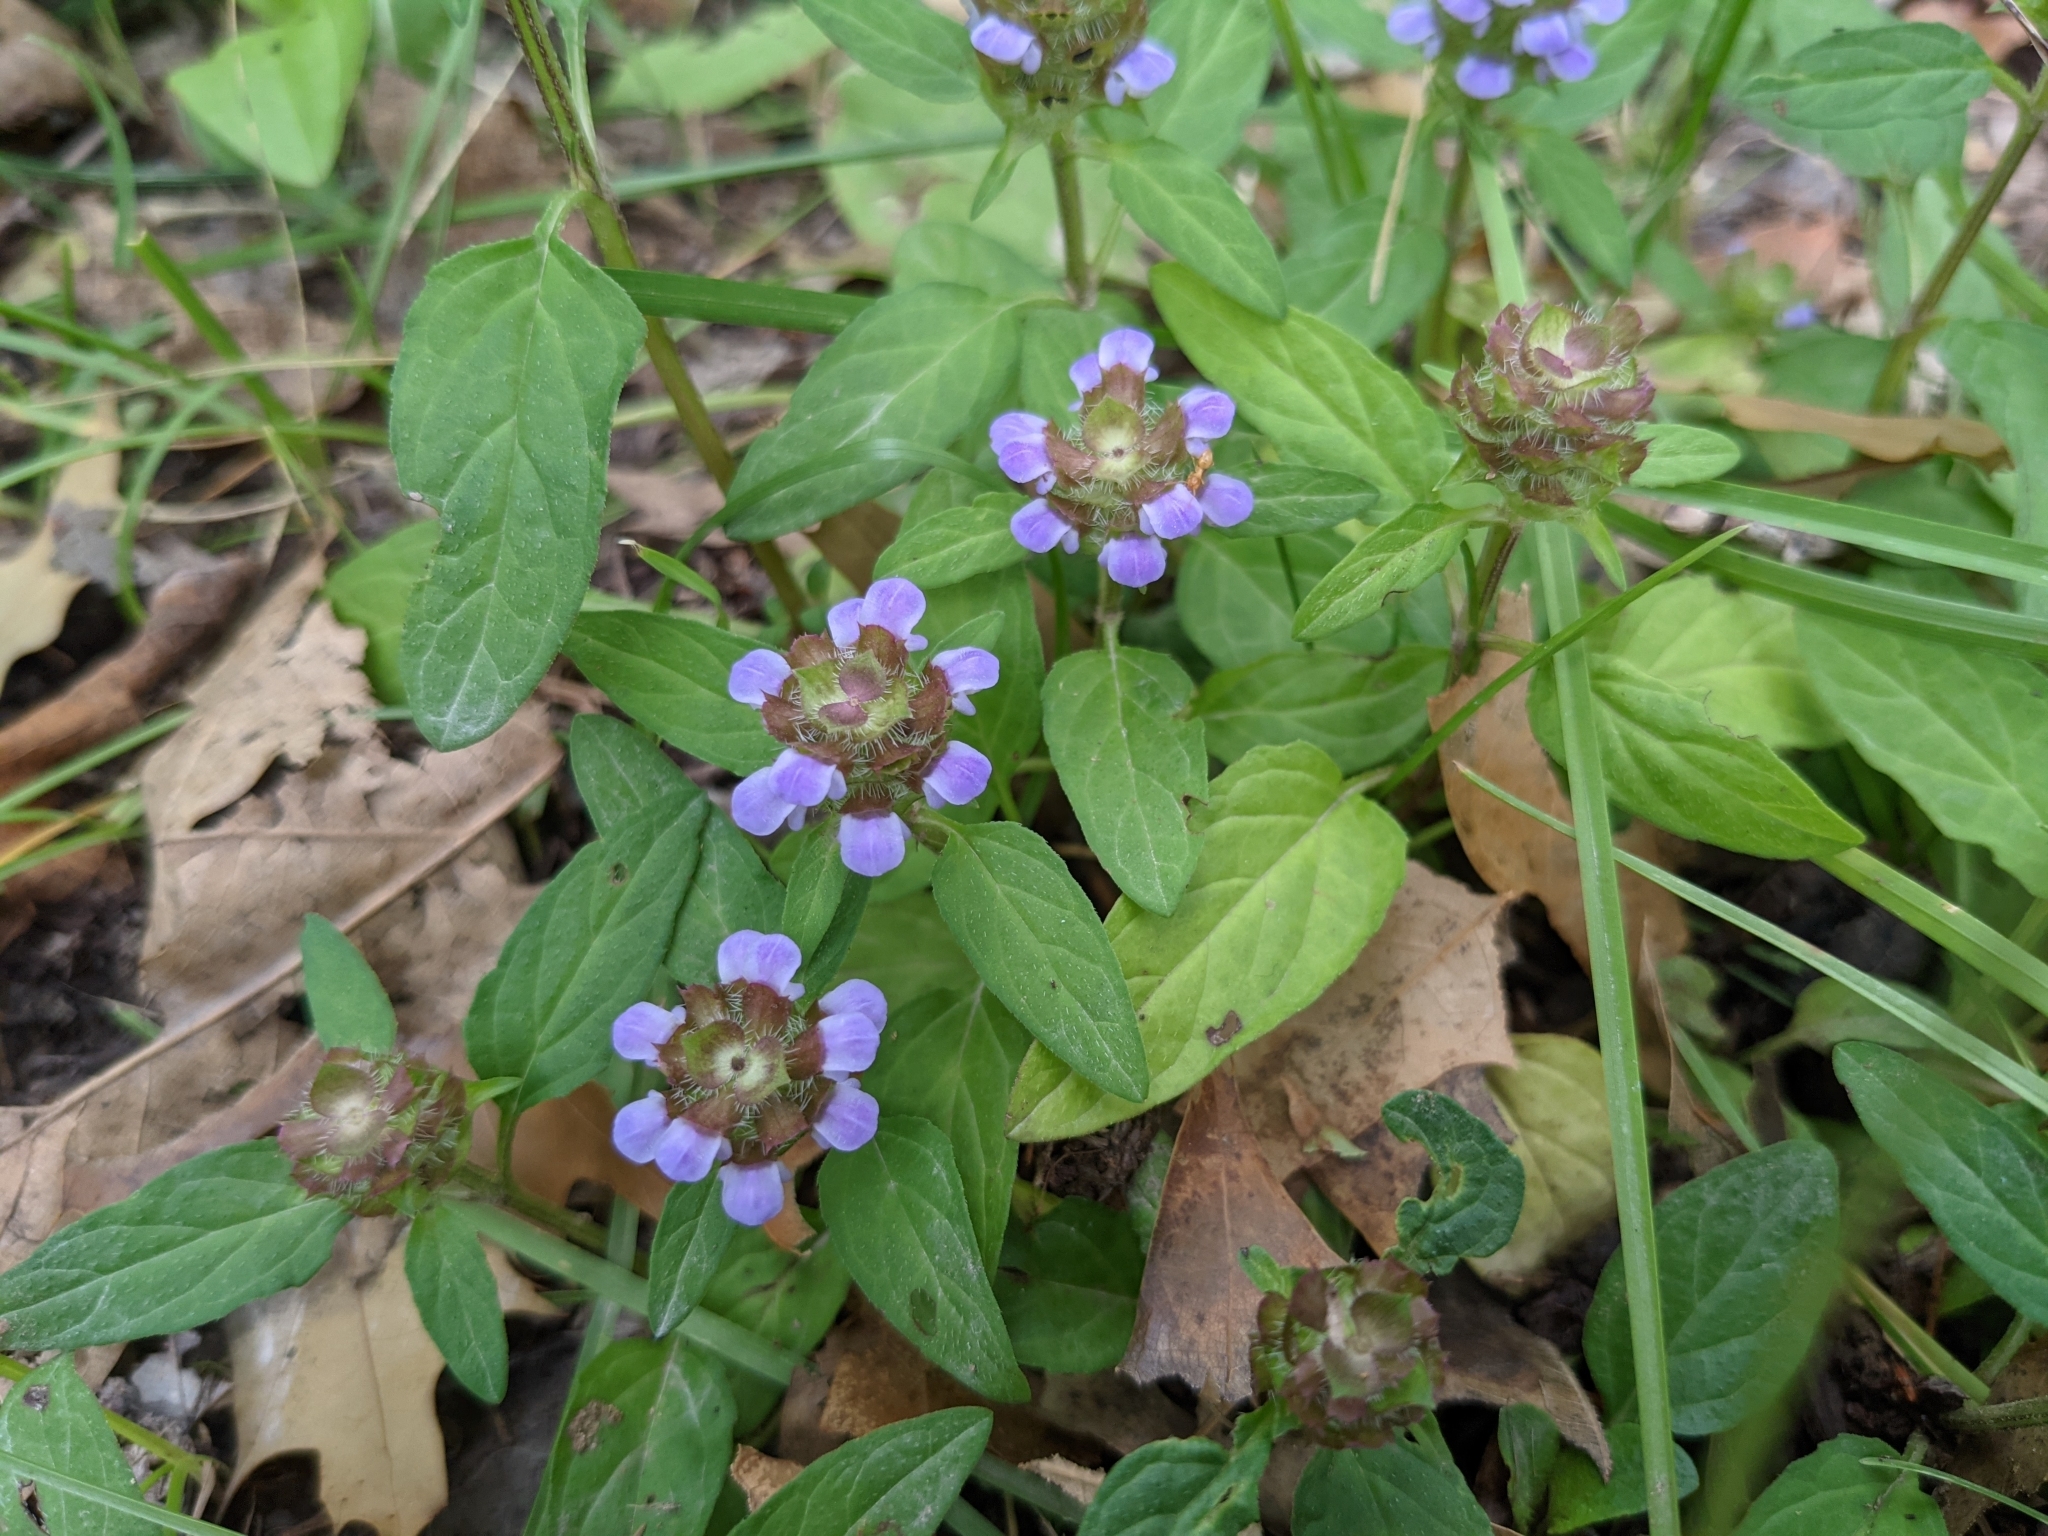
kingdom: Plantae
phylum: Tracheophyta
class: Magnoliopsida
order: Lamiales
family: Lamiaceae
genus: Prunella
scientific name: Prunella vulgaris
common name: Heal-all
